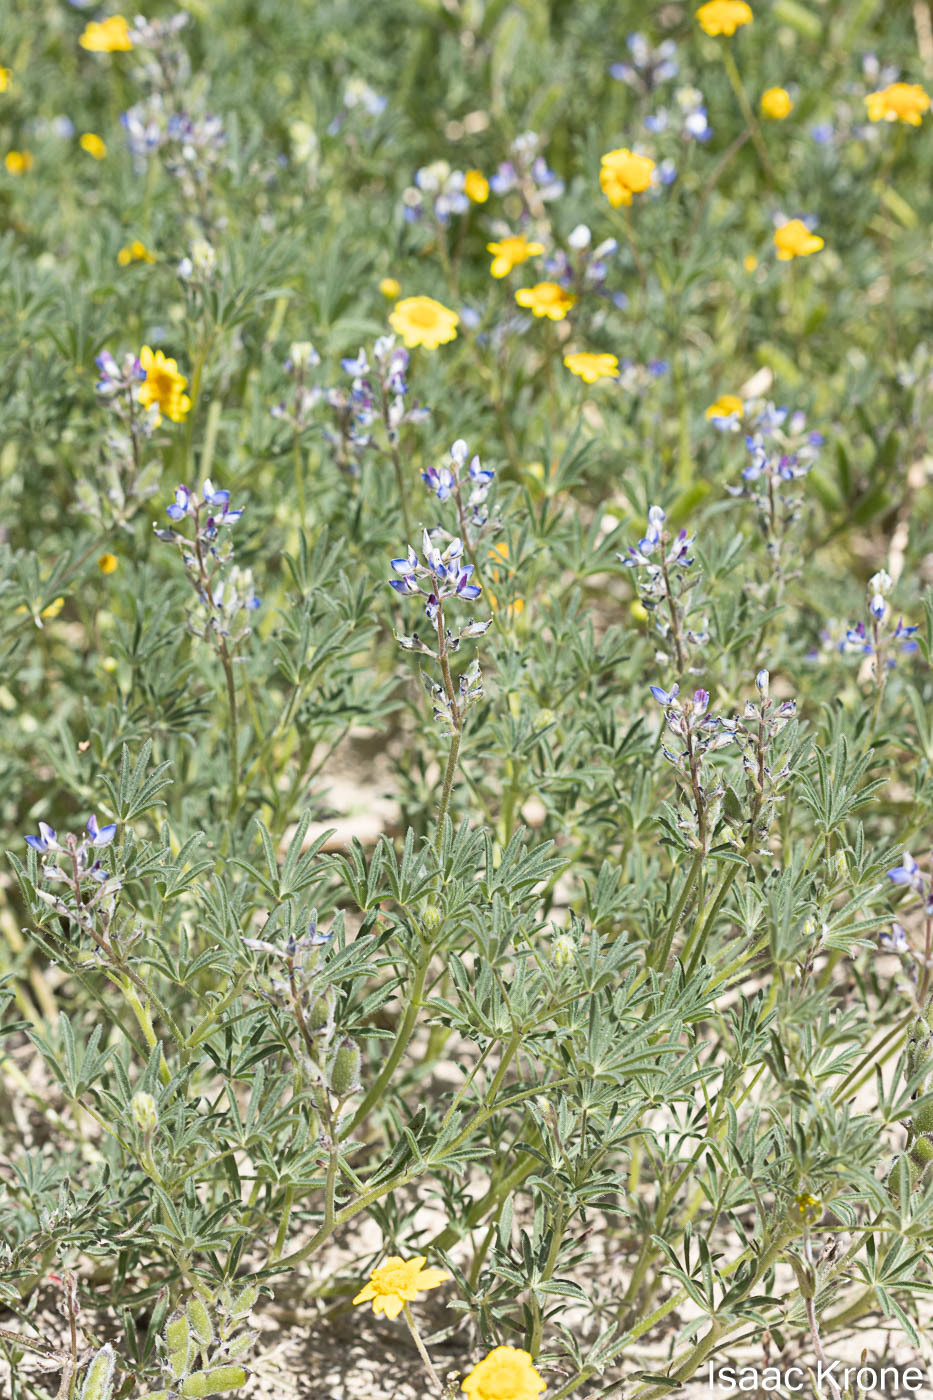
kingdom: Plantae
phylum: Tracheophyta
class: Magnoliopsida
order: Fabales
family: Fabaceae
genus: Lupinus
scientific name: Lupinus bicolor
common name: Miniature lupine
